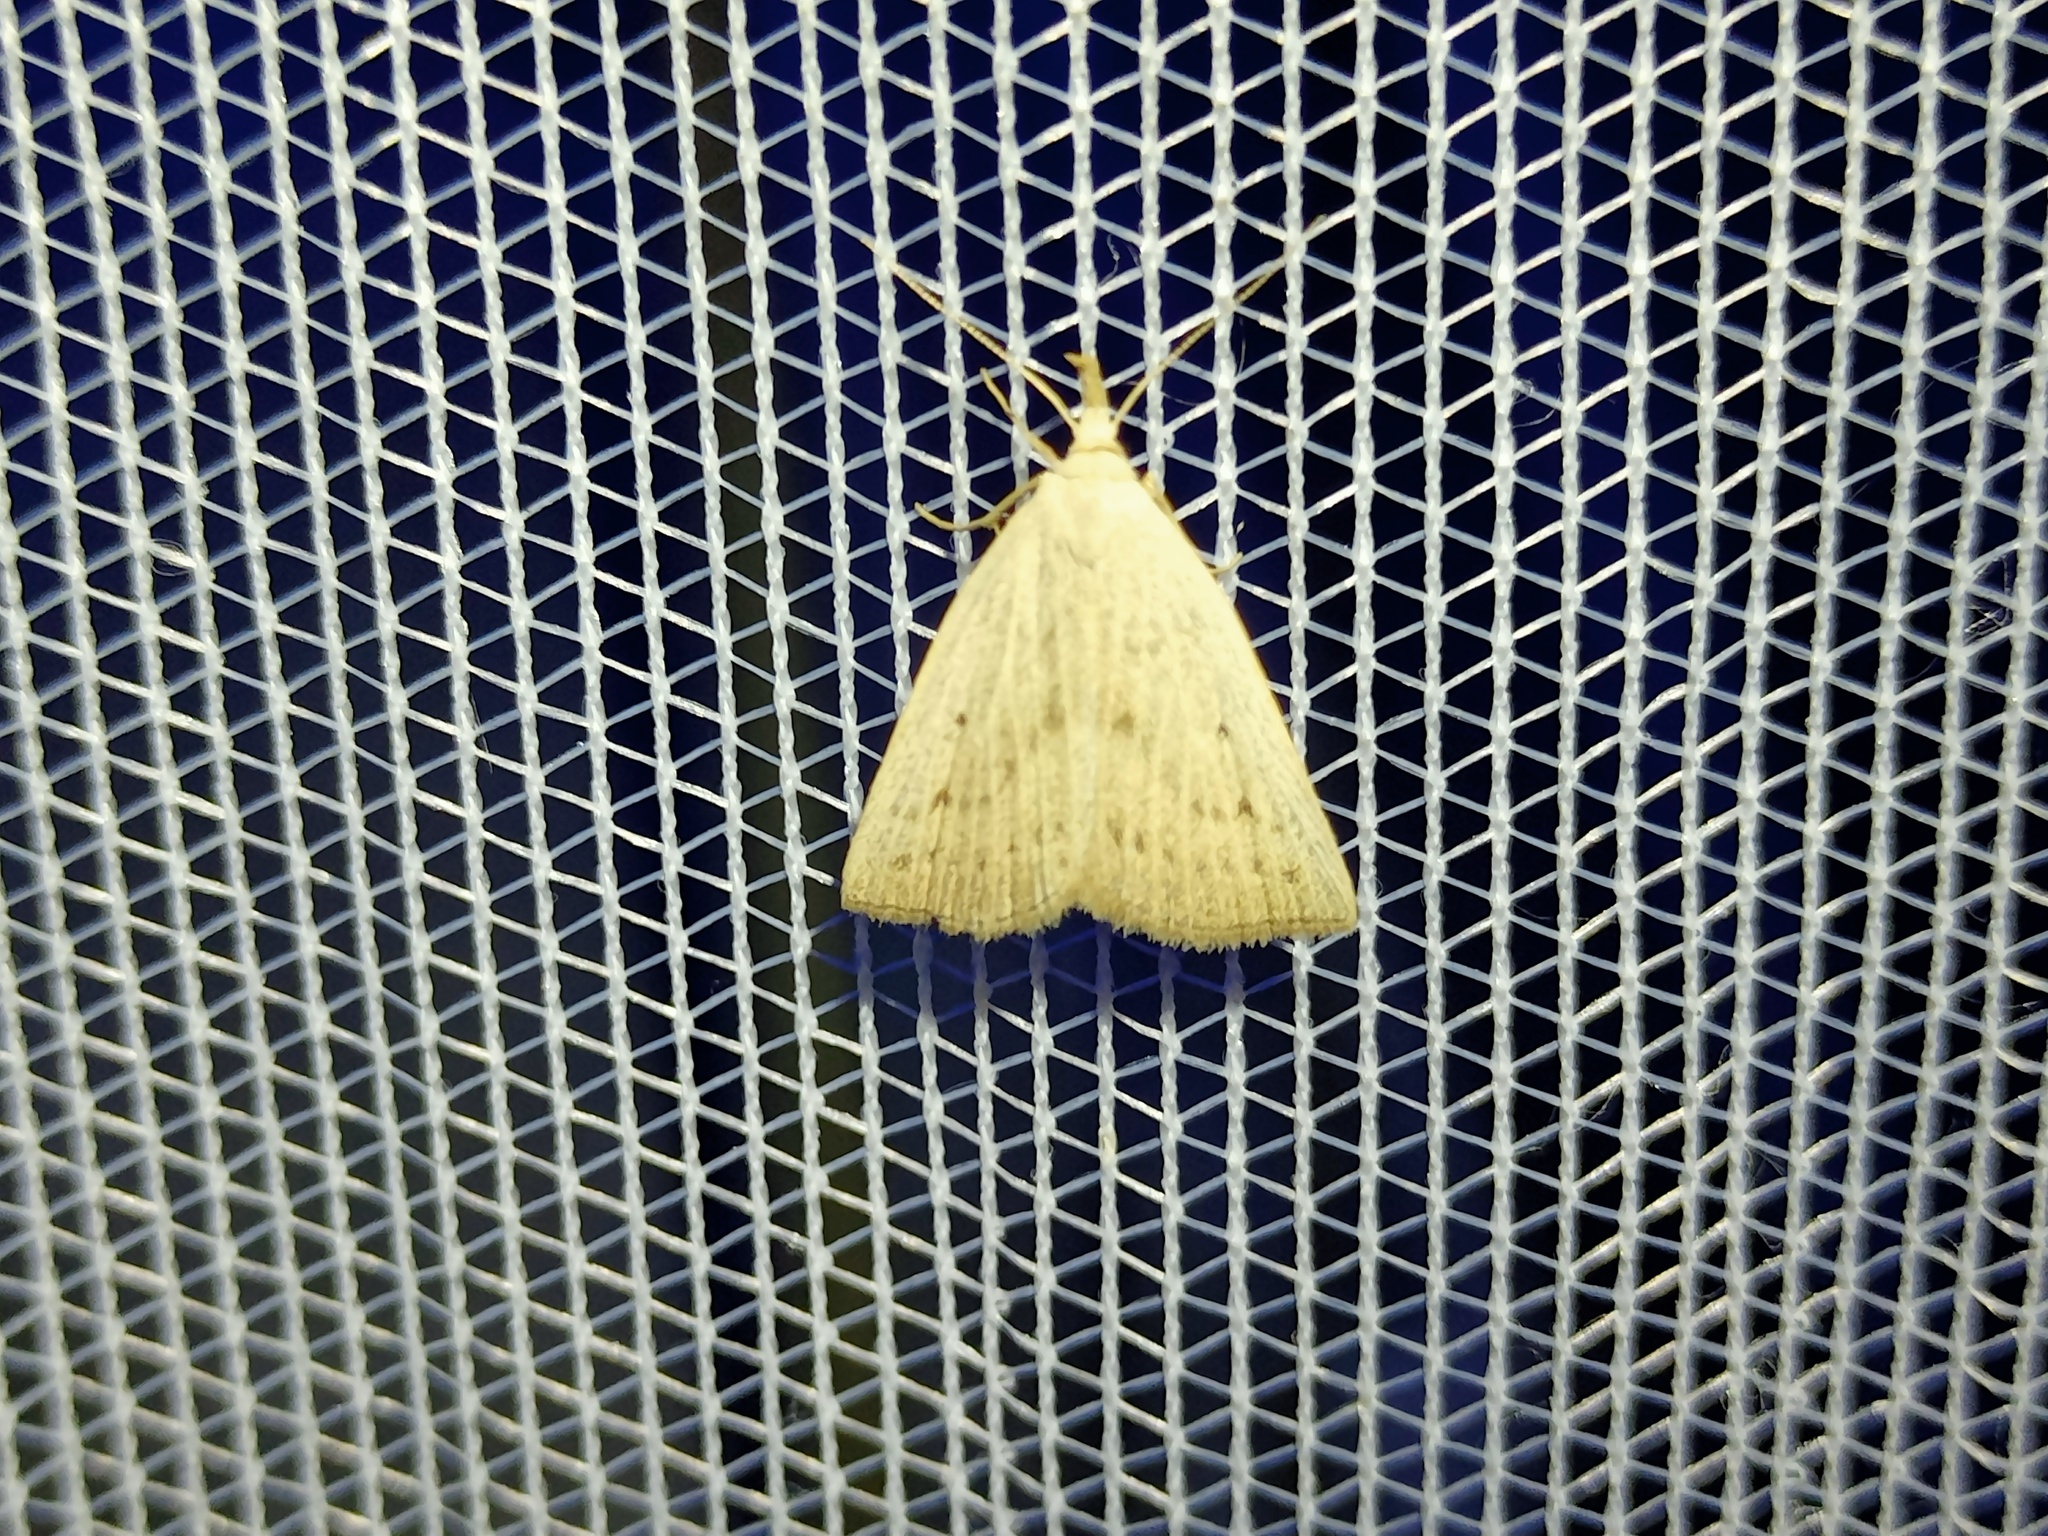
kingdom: Animalia
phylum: Arthropoda
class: Insecta
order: Lepidoptera
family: Erebidae
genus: Macrochilo
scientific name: Macrochilo cribrumalis
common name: Dotted fan-foot
